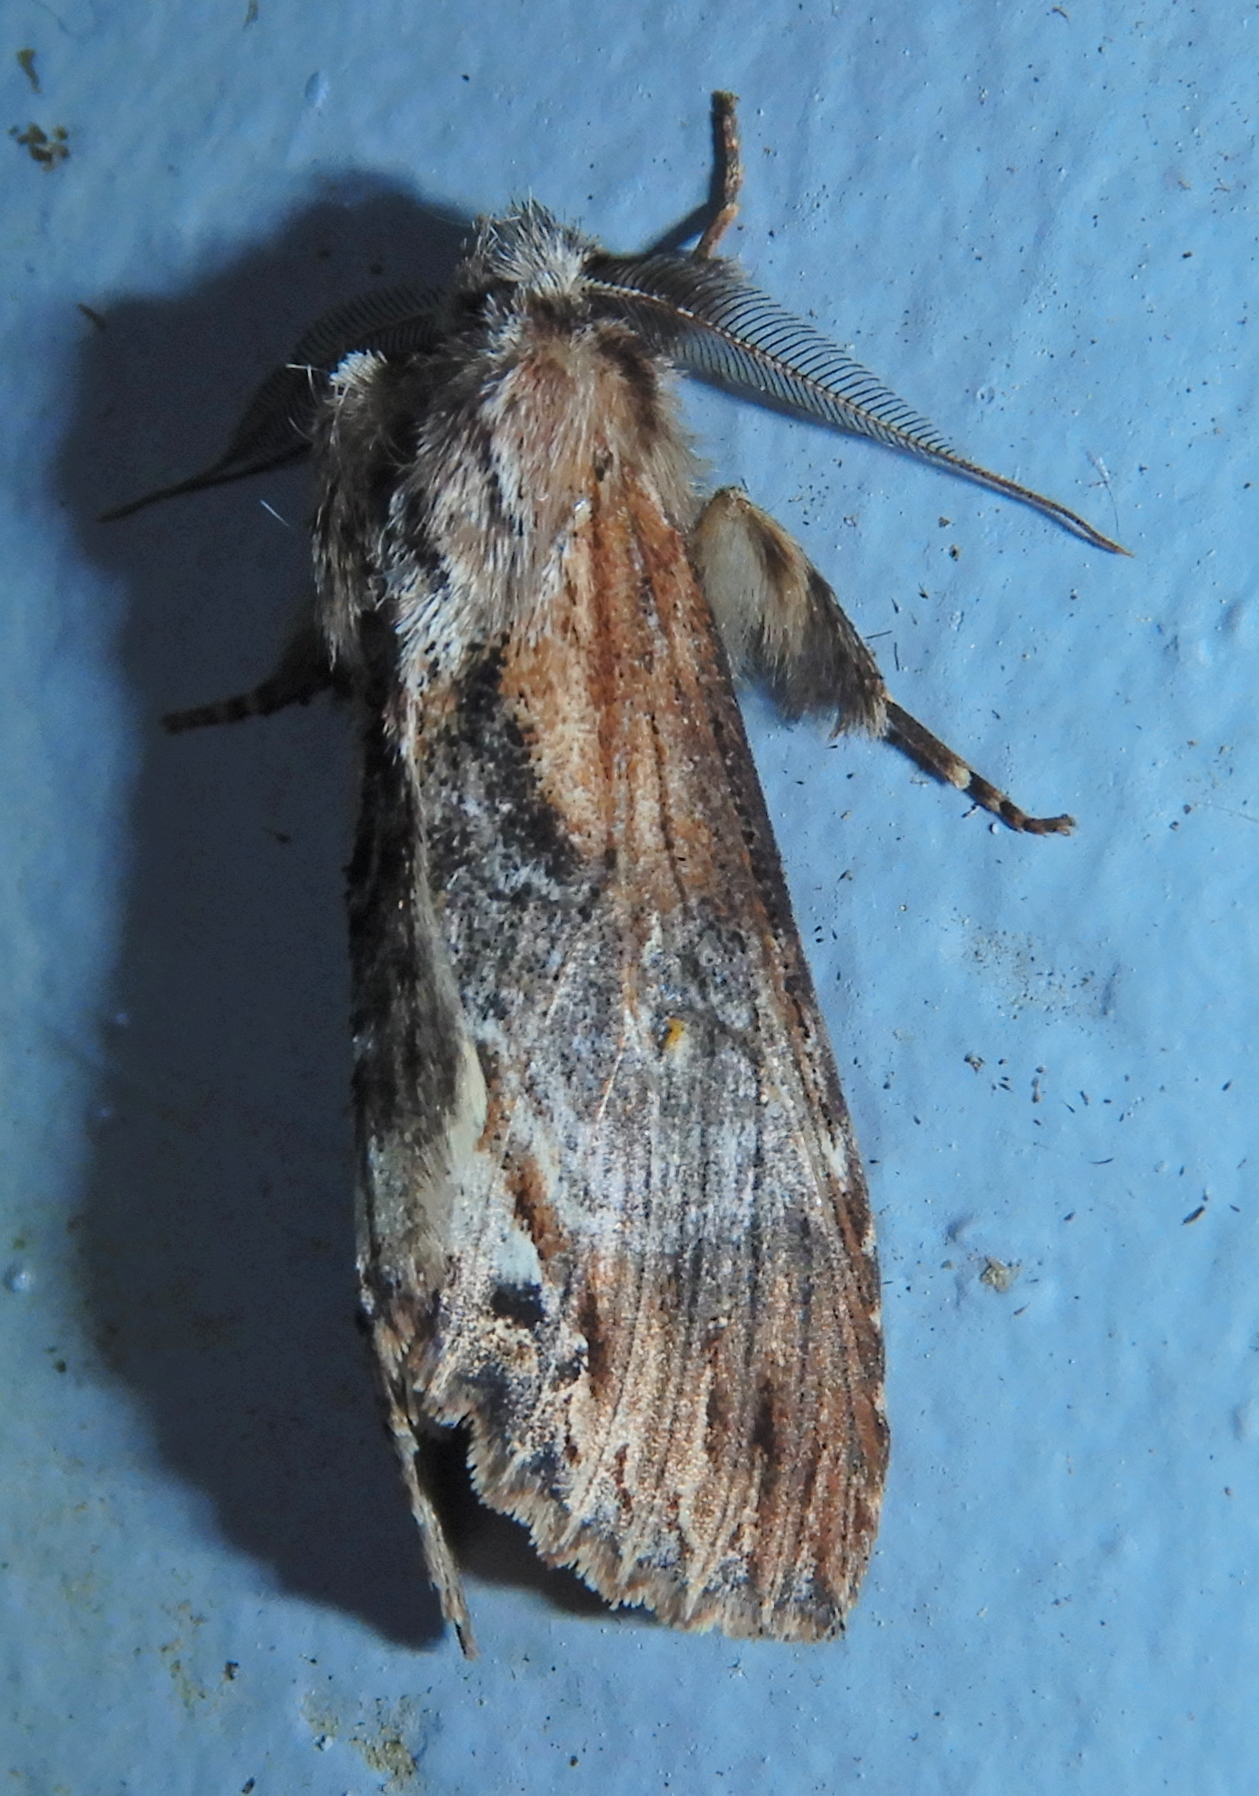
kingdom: Animalia
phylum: Arthropoda
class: Insecta
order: Lepidoptera
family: Notodontidae
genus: Dasylophia
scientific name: Dasylophia thyatiroides
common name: Gray-patched prominent
